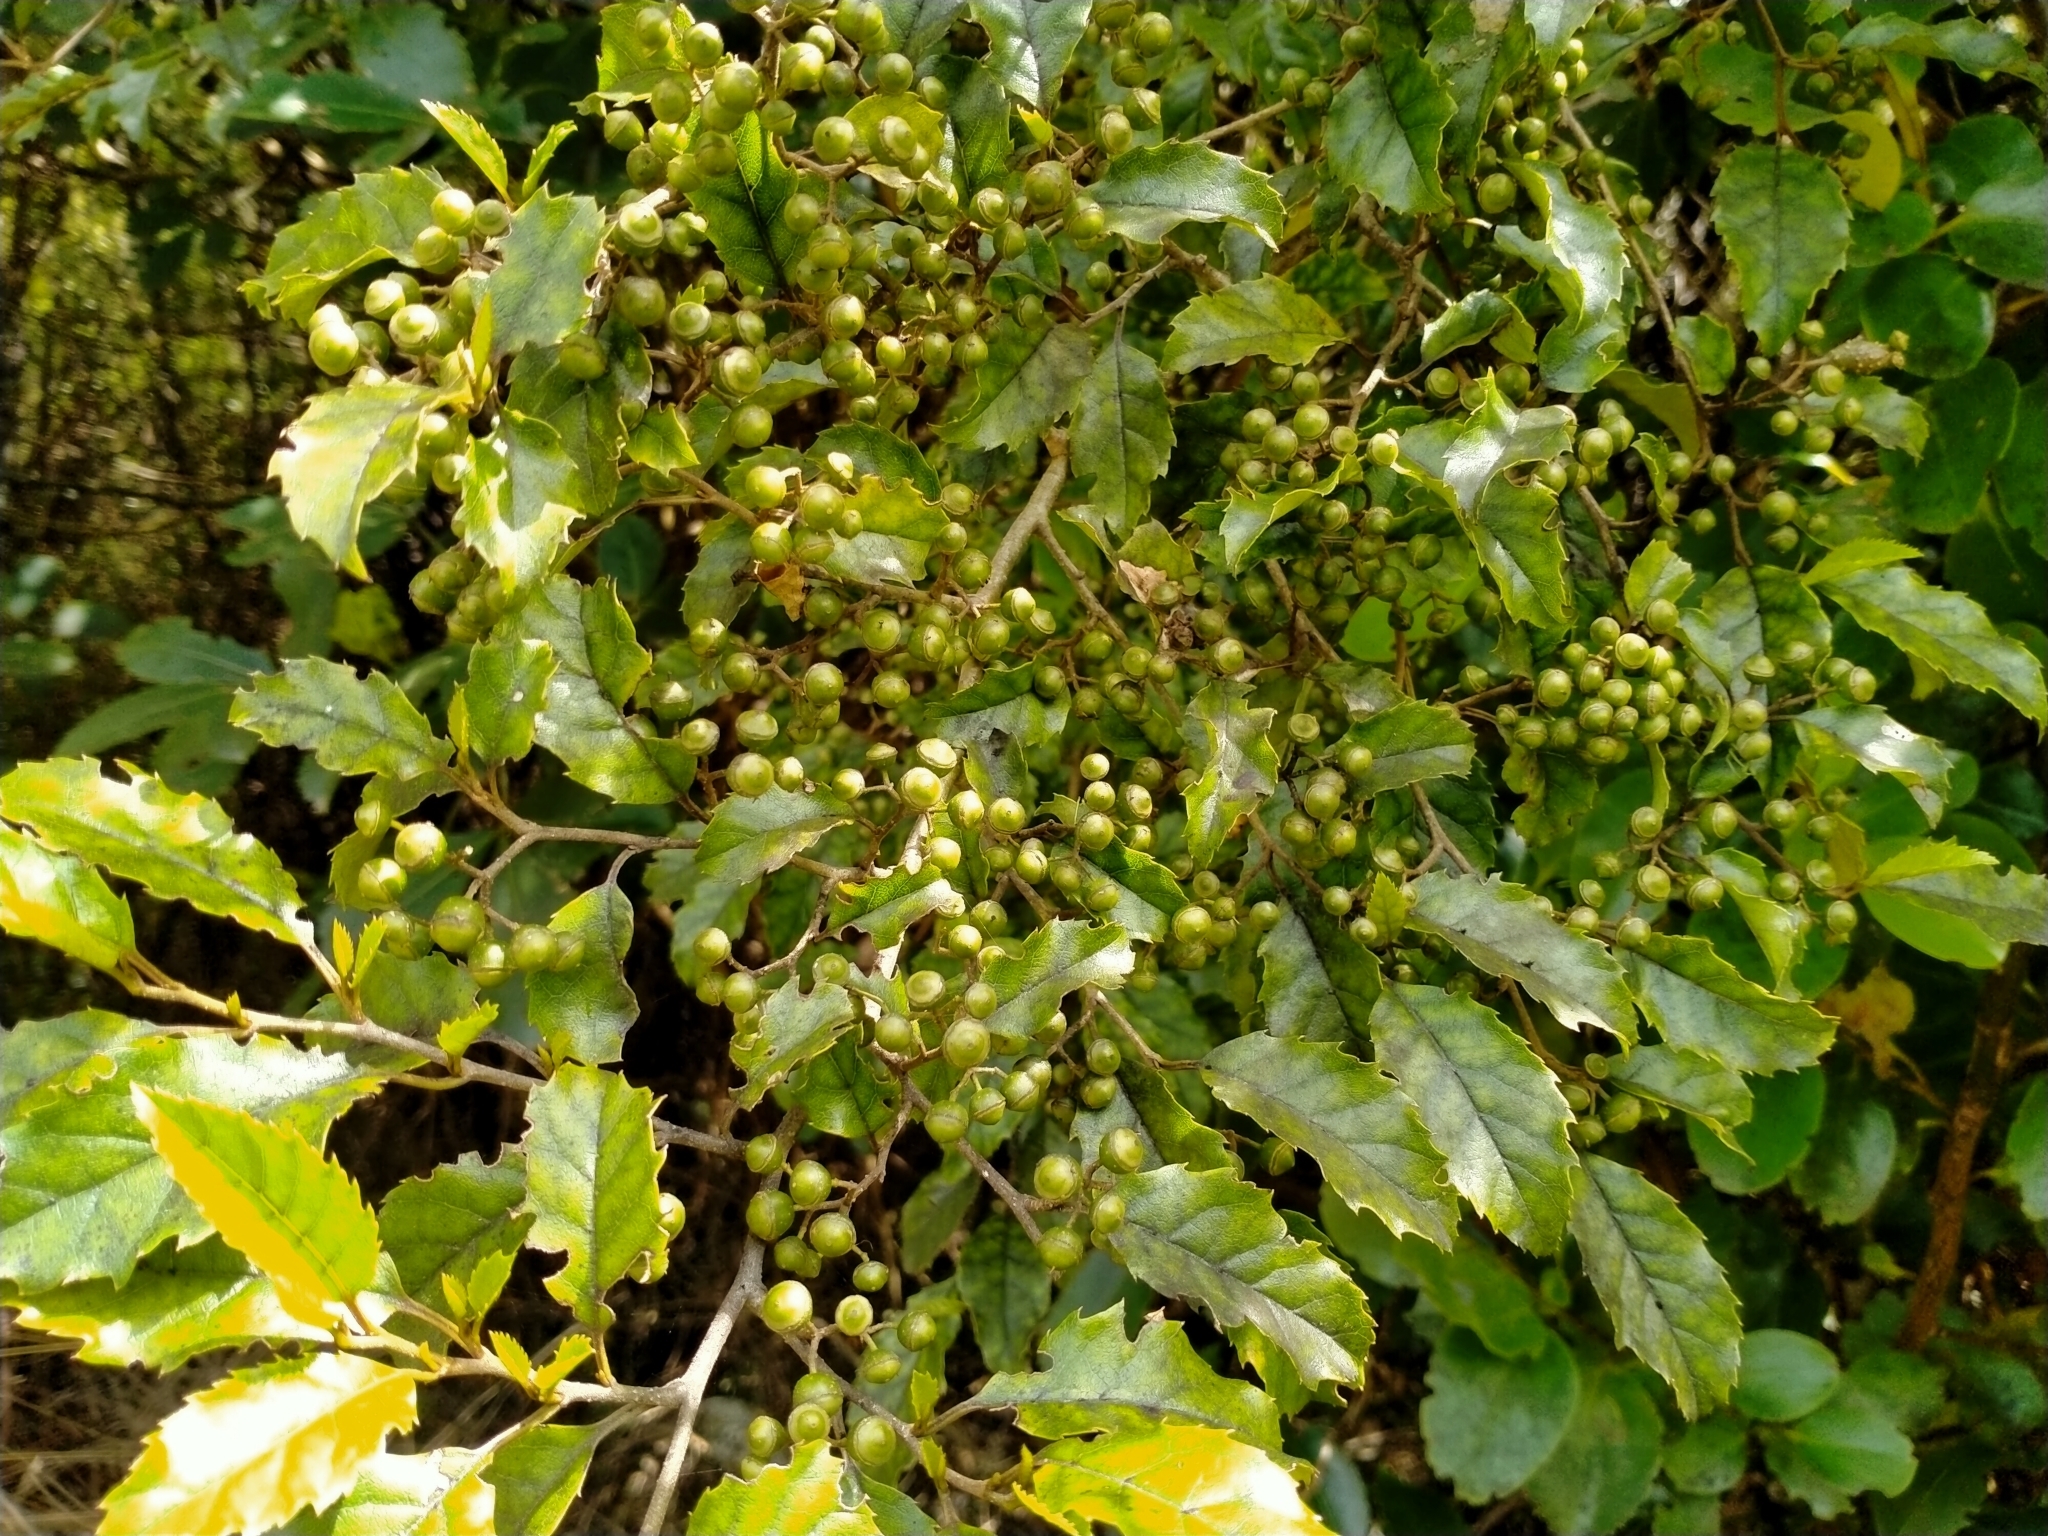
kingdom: Plantae
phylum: Tracheophyta
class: Magnoliopsida
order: Asterales
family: Rousseaceae
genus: Carpodetus
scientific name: Carpodetus serratus
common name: White mapau
